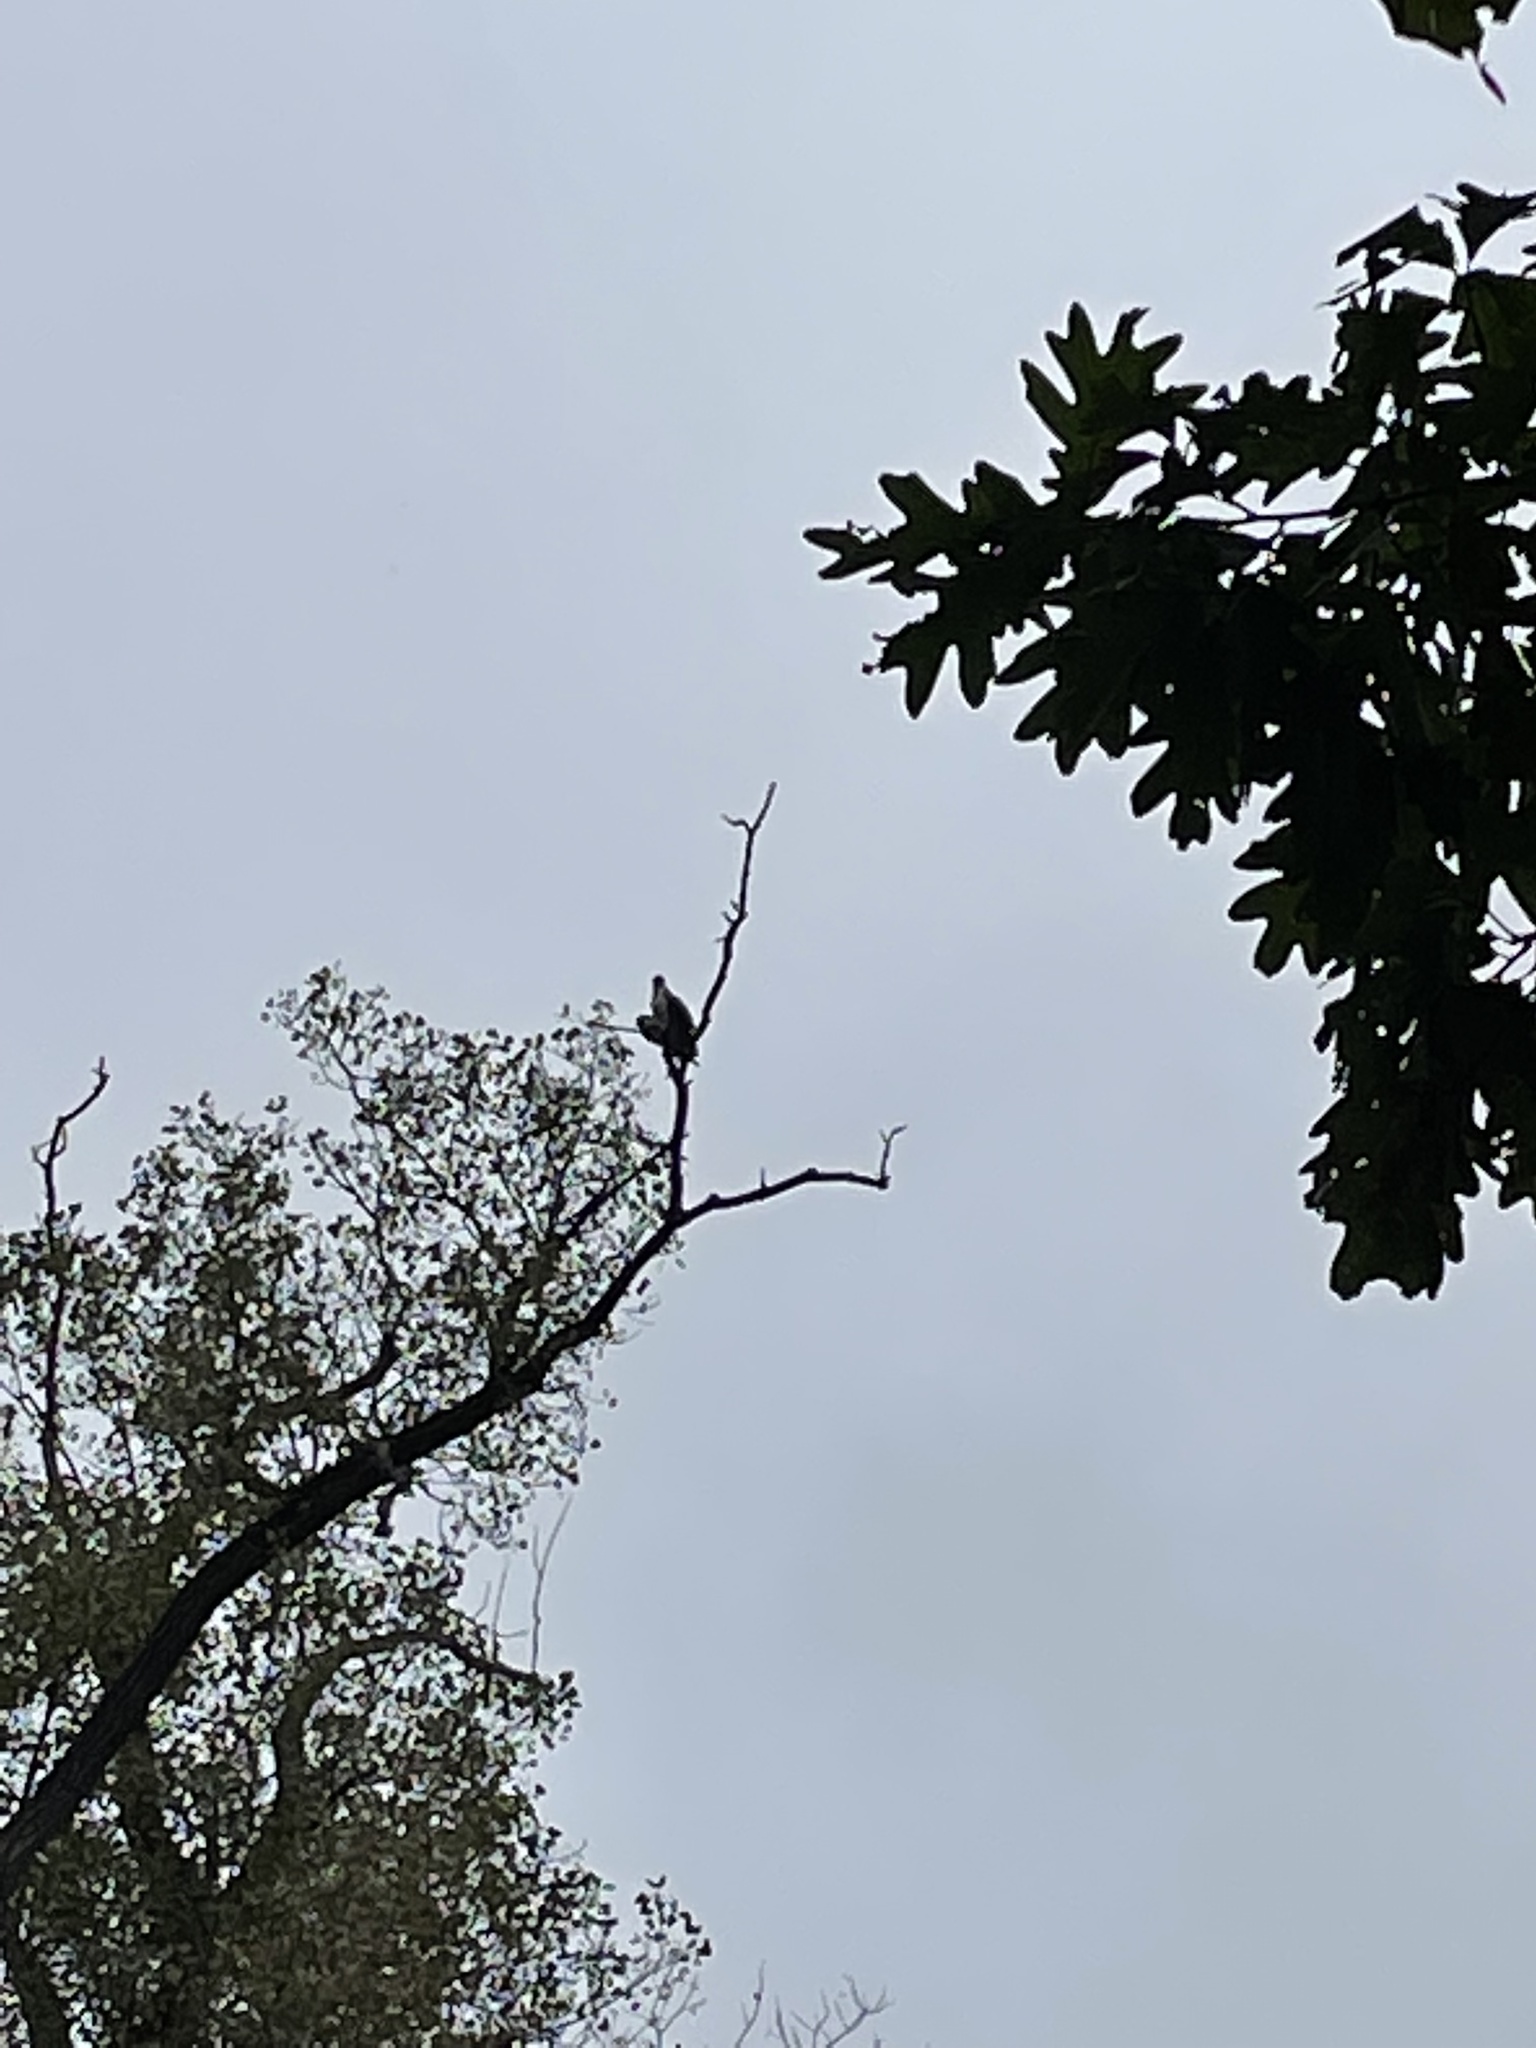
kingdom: Animalia
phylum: Chordata
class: Aves
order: Accipitriformes
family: Pandionidae
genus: Pandion
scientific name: Pandion haliaetus
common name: Osprey
